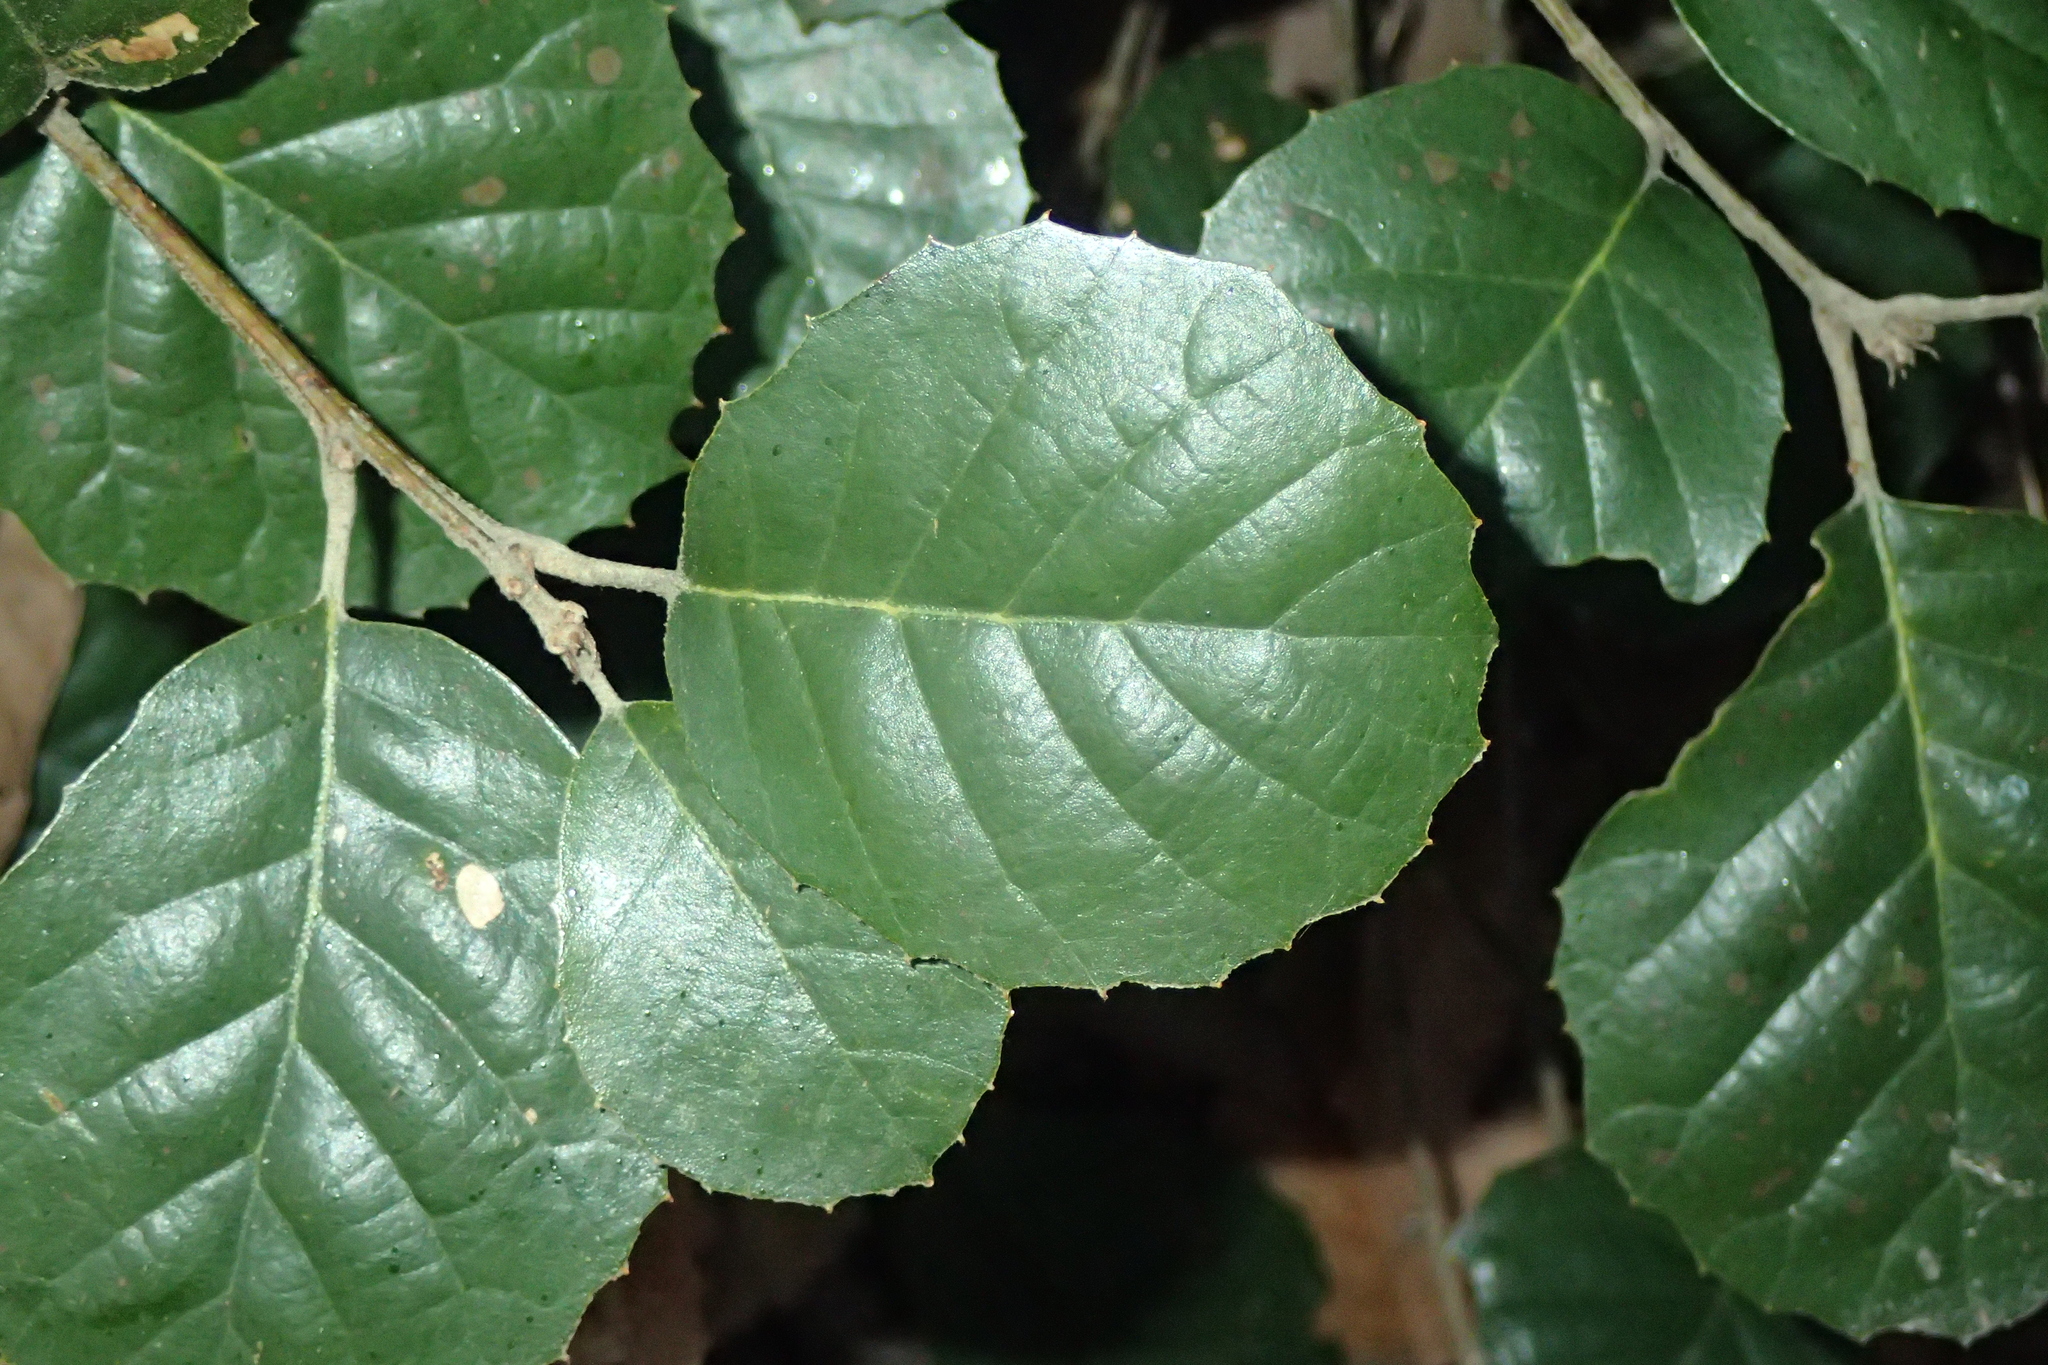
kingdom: Plantae
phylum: Tracheophyta
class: Magnoliopsida
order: Fagales
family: Fagaceae
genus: Quercus
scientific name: Quercus alnifolia
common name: Golden oak
